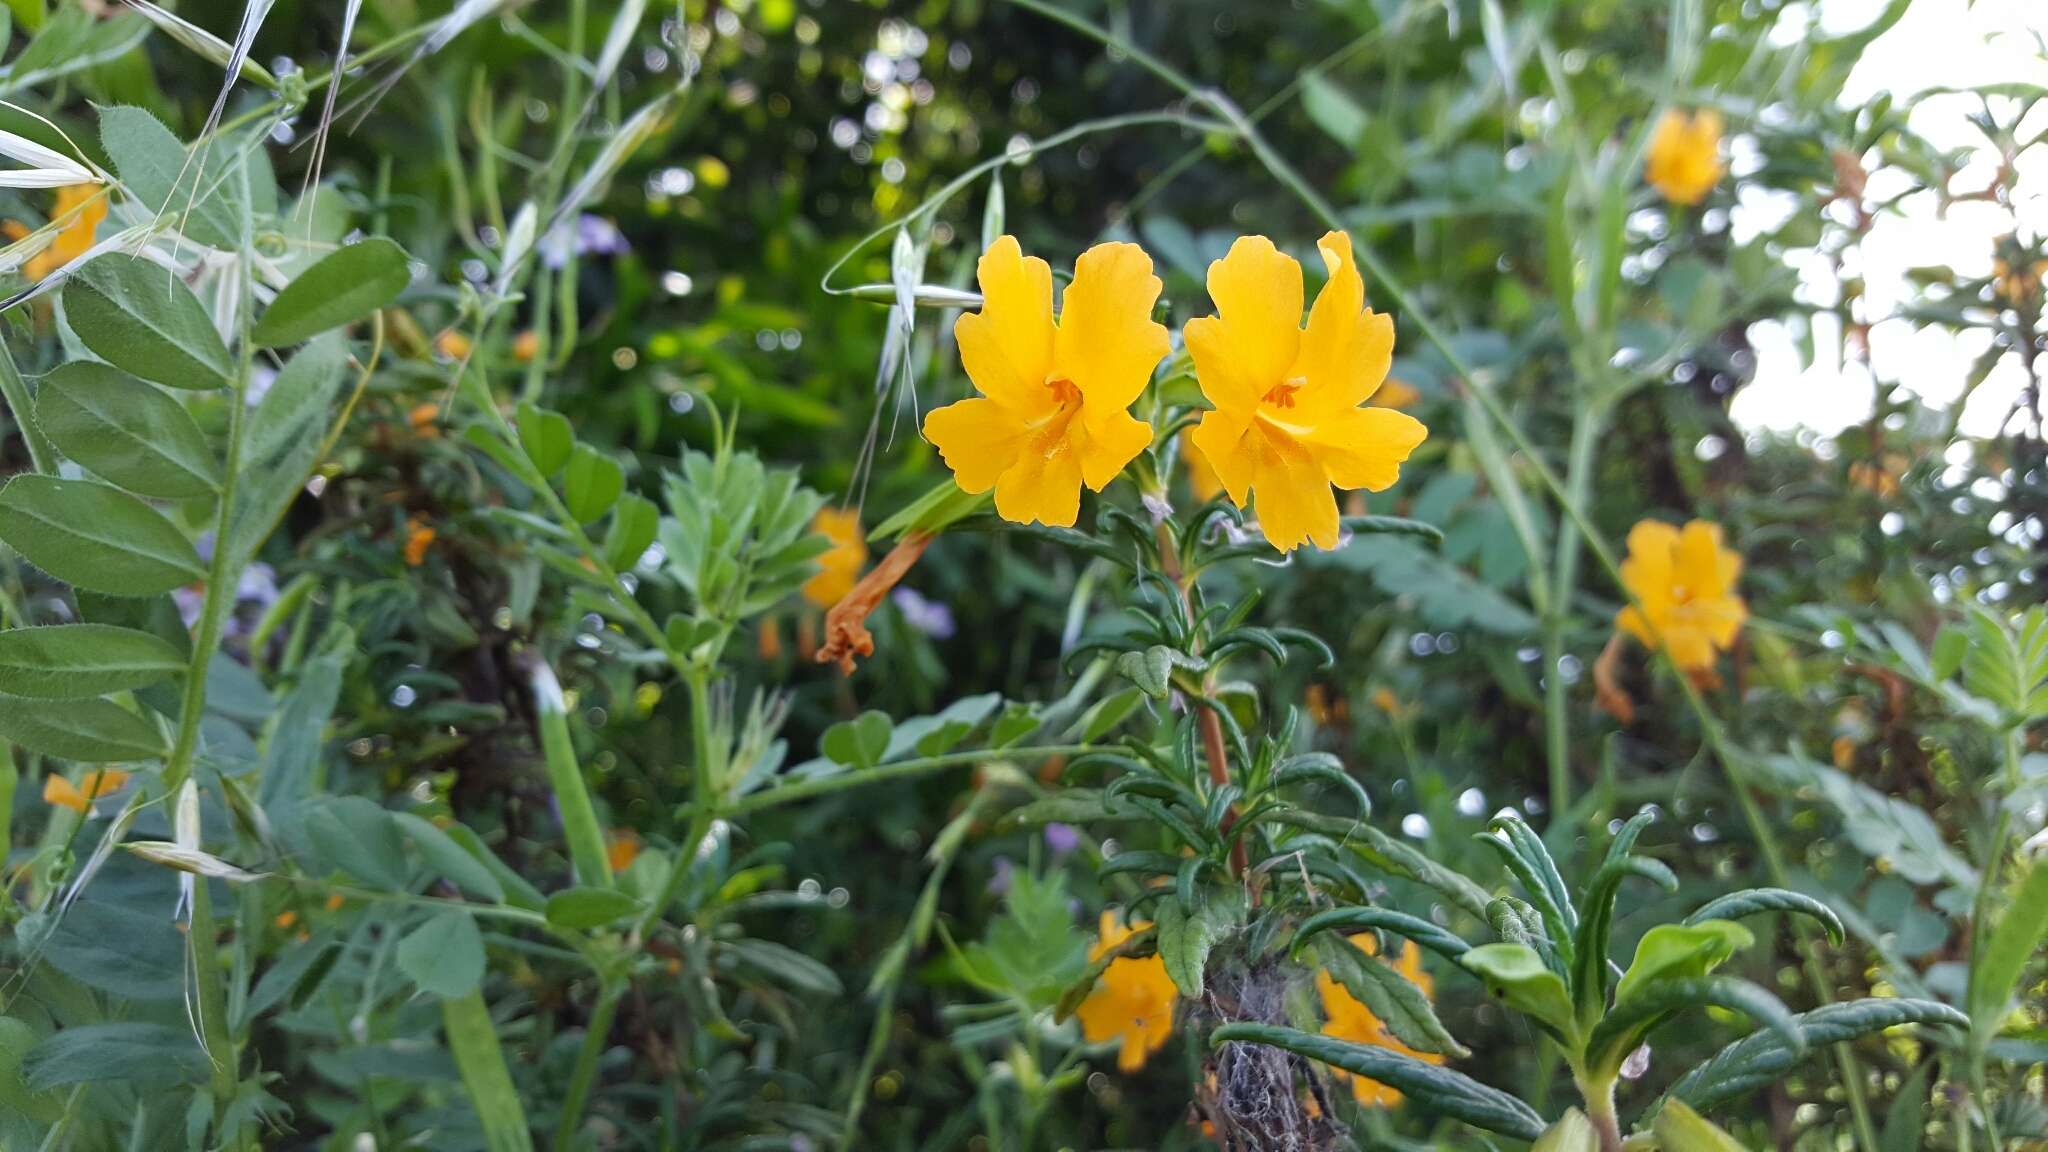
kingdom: Plantae
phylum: Tracheophyta
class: Magnoliopsida
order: Lamiales
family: Phrymaceae
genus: Diplacus
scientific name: Diplacus aurantiacus
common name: Bush monkey-flower
